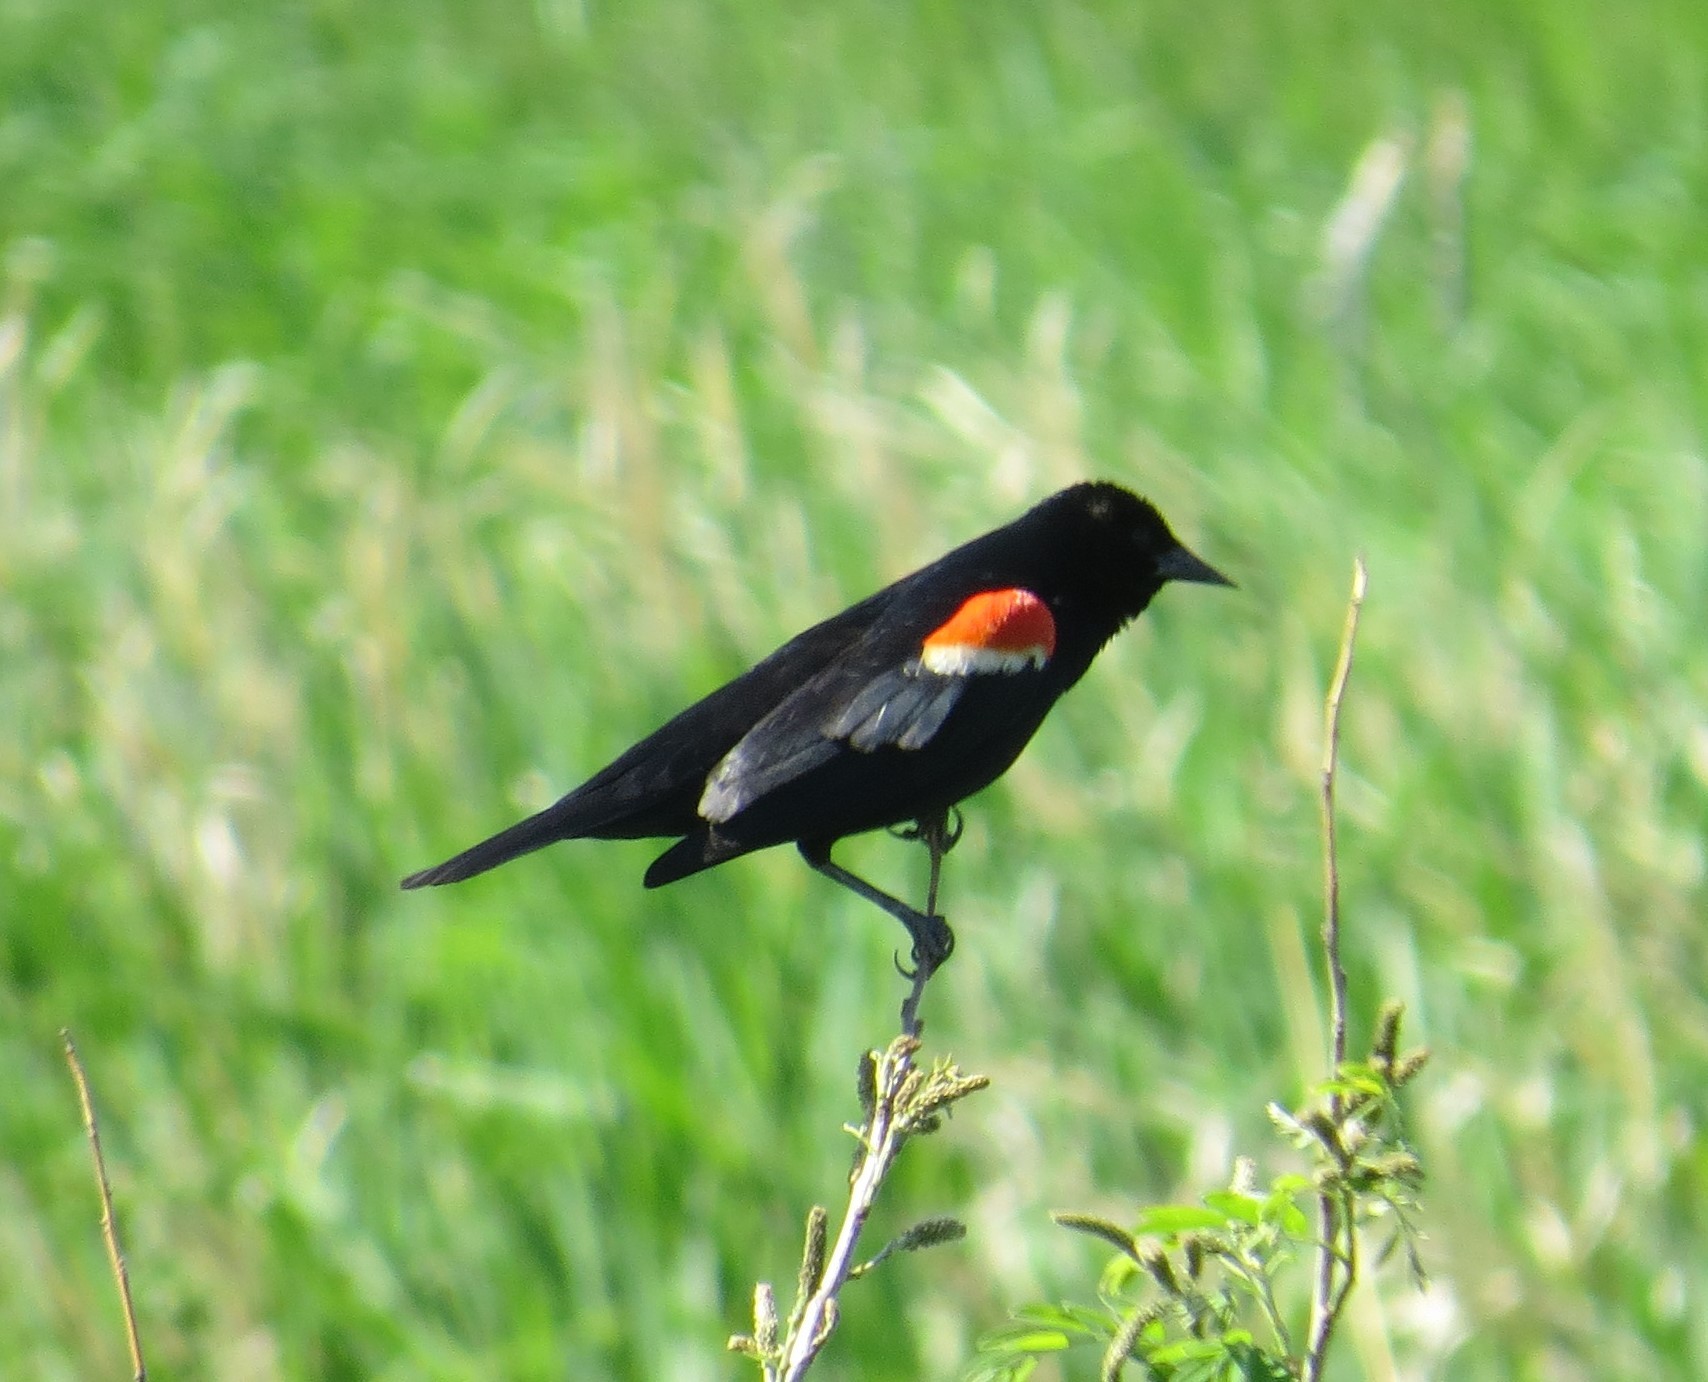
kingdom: Animalia
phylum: Chordata
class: Aves
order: Passeriformes
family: Icteridae
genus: Agelaius
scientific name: Agelaius phoeniceus
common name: Red-winged blackbird
